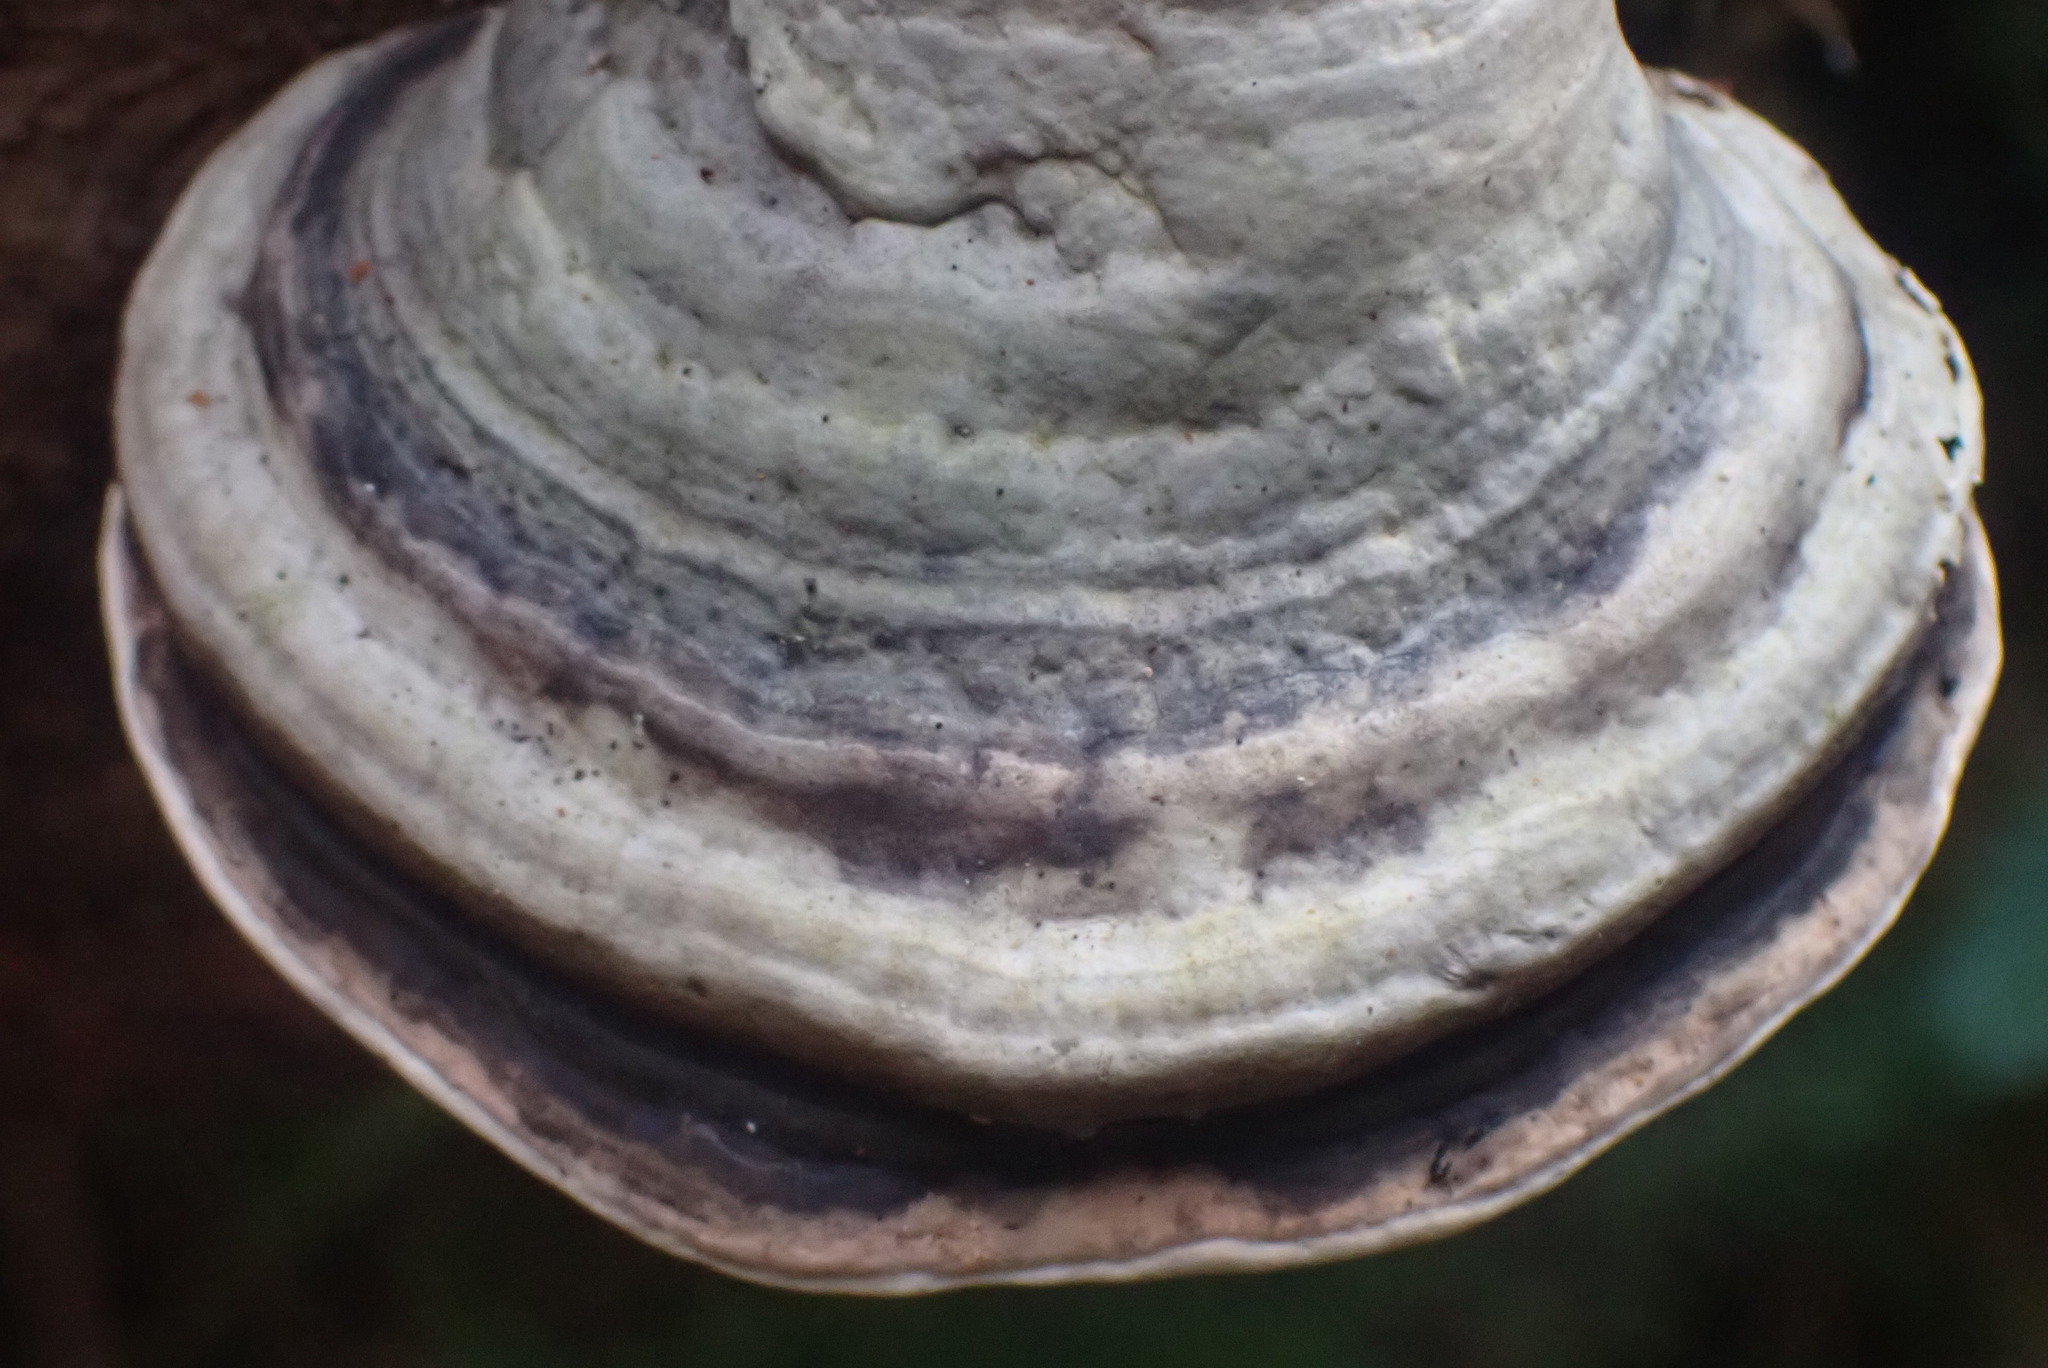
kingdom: Fungi
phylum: Basidiomycota
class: Agaricomycetes
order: Polyporales
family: Fomitopsidaceae
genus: Fomitopsis
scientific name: Fomitopsis ochracea
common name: American brown fomitopsis
